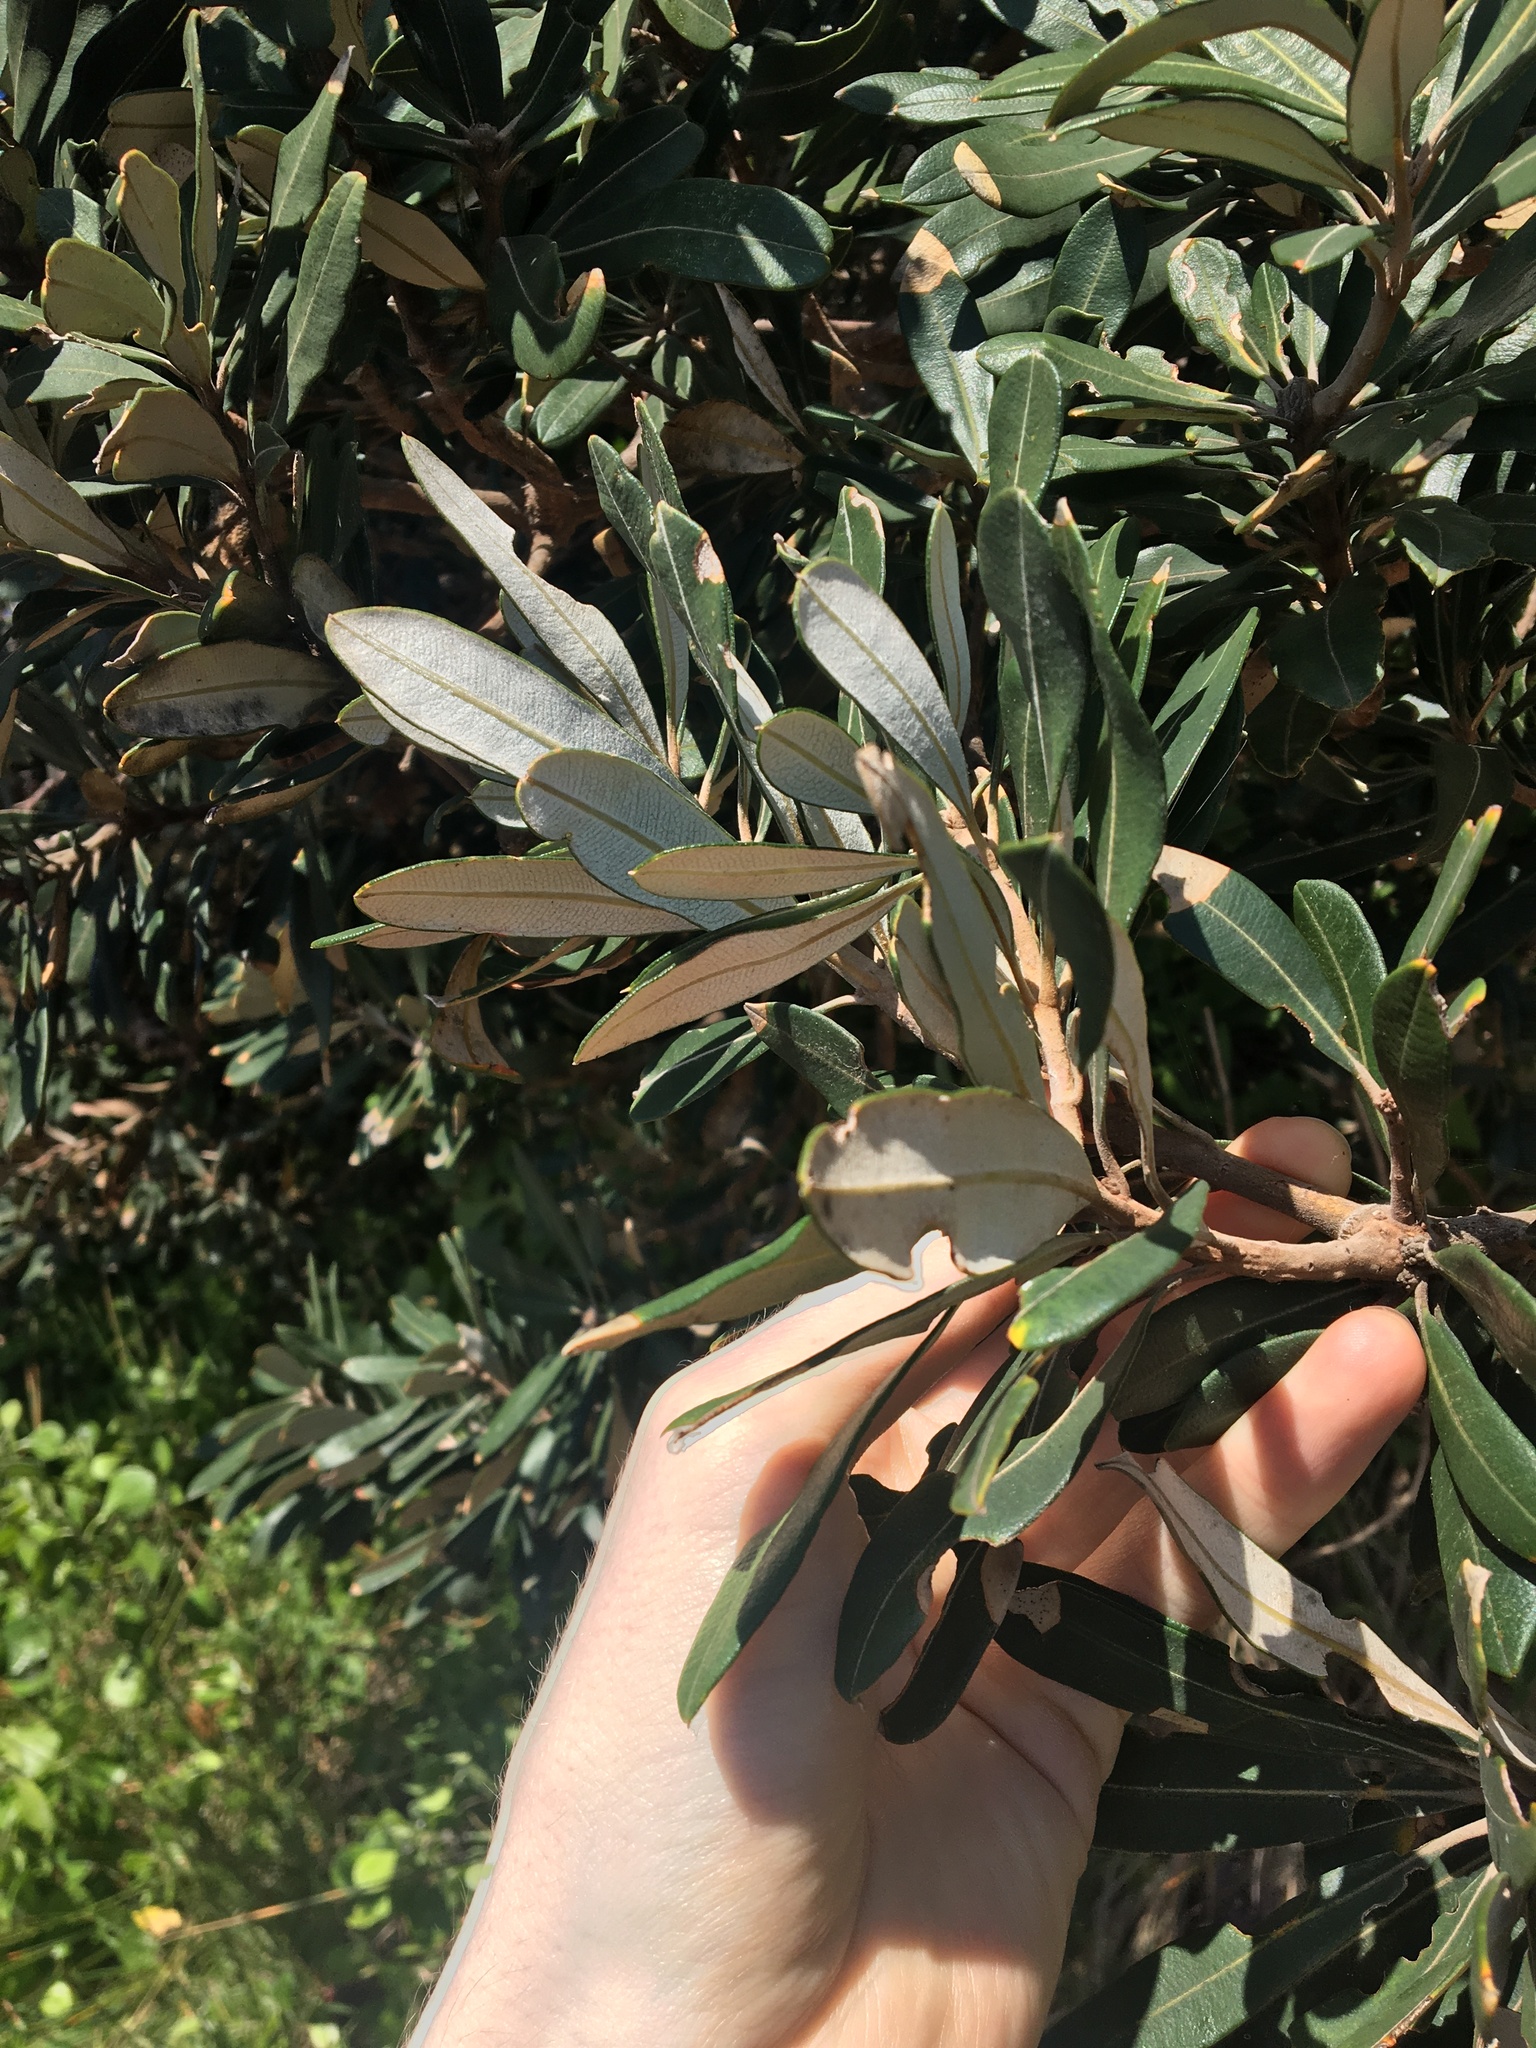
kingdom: Plantae
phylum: Tracheophyta
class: Magnoliopsida
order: Proteales
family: Proteaceae
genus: Banksia
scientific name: Banksia integrifolia
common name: White-honeysuckle
